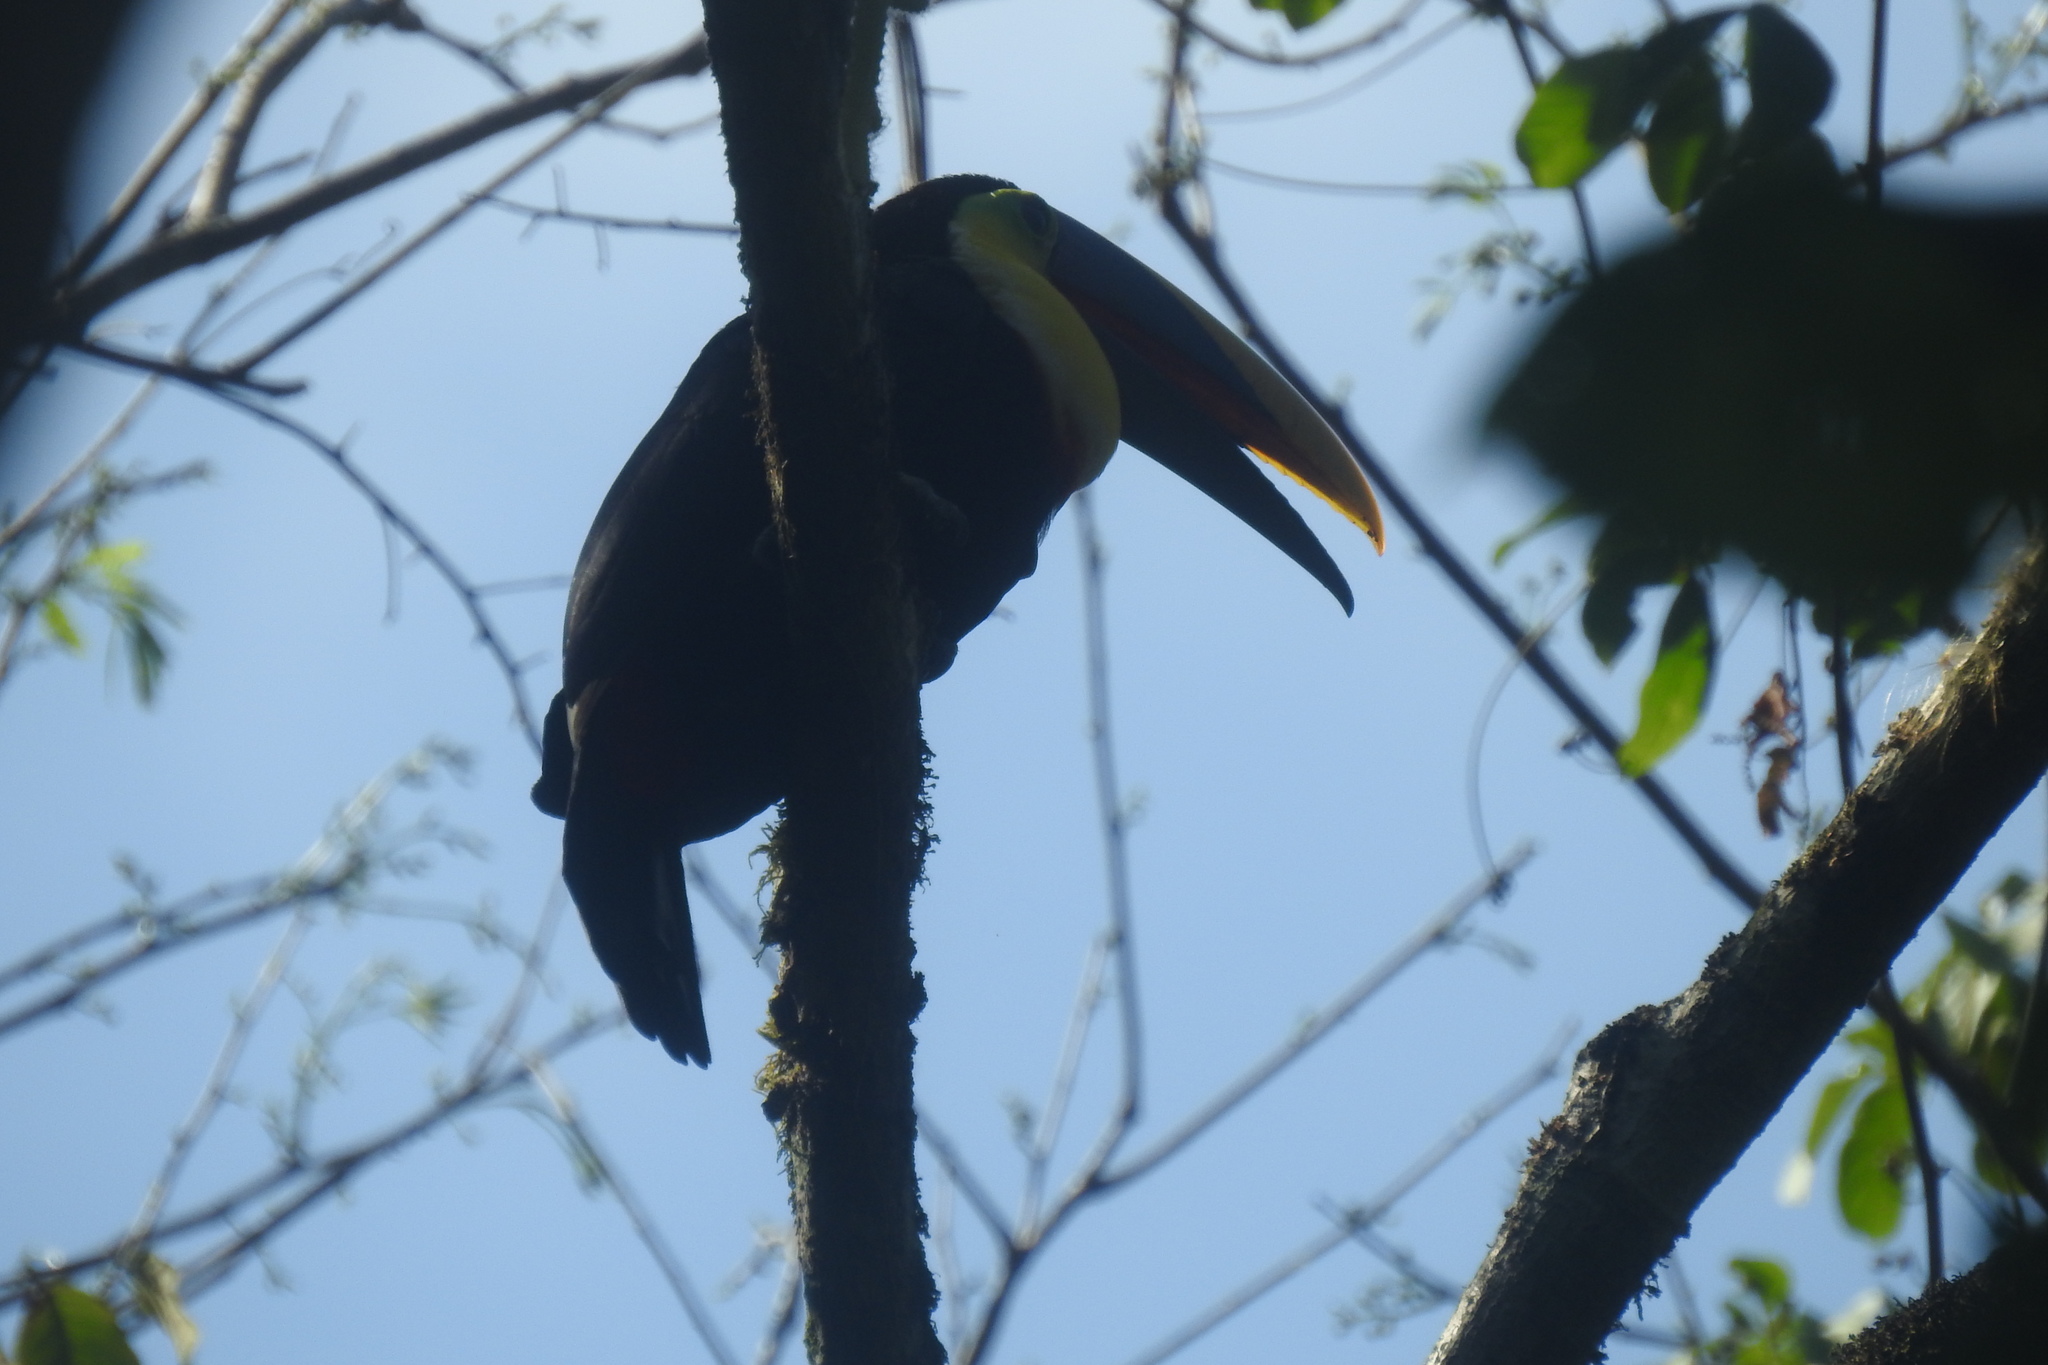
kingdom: Animalia
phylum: Chordata
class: Aves
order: Piciformes
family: Ramphastidae
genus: Ramphastos
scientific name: Ramphastos ambiguus
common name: Yellow-throated toucan
